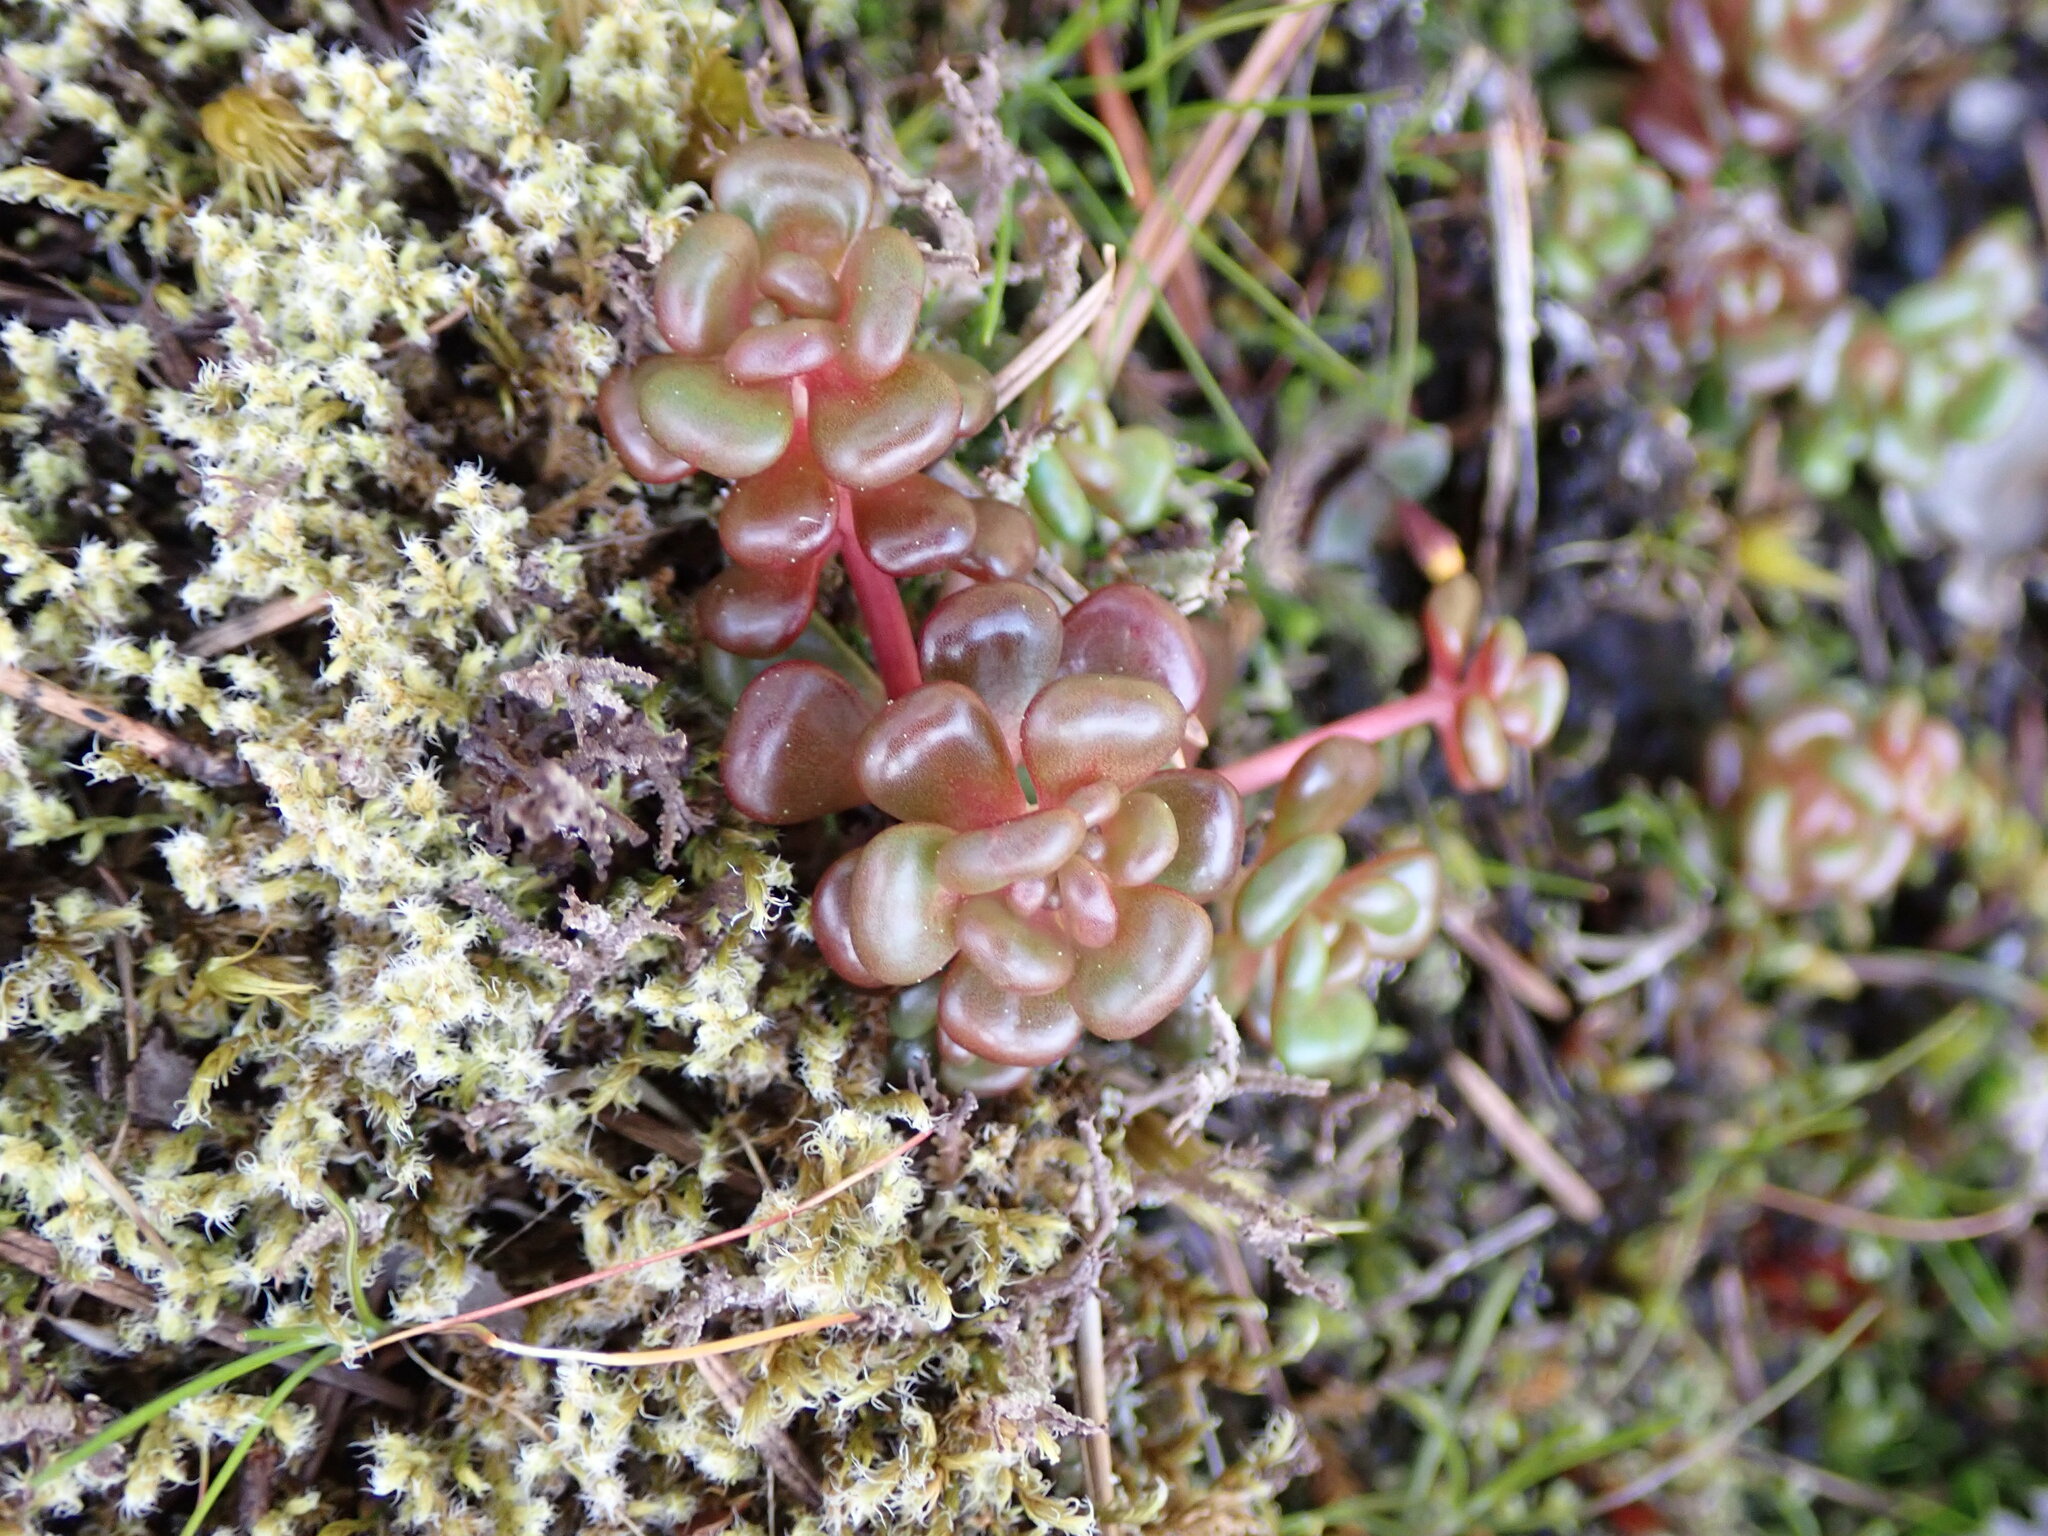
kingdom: Plantae
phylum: Tracheophyta
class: Magnoliopsida
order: Saxifragales
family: Crassulaceae
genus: Sedum
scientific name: Sedum oreganum
